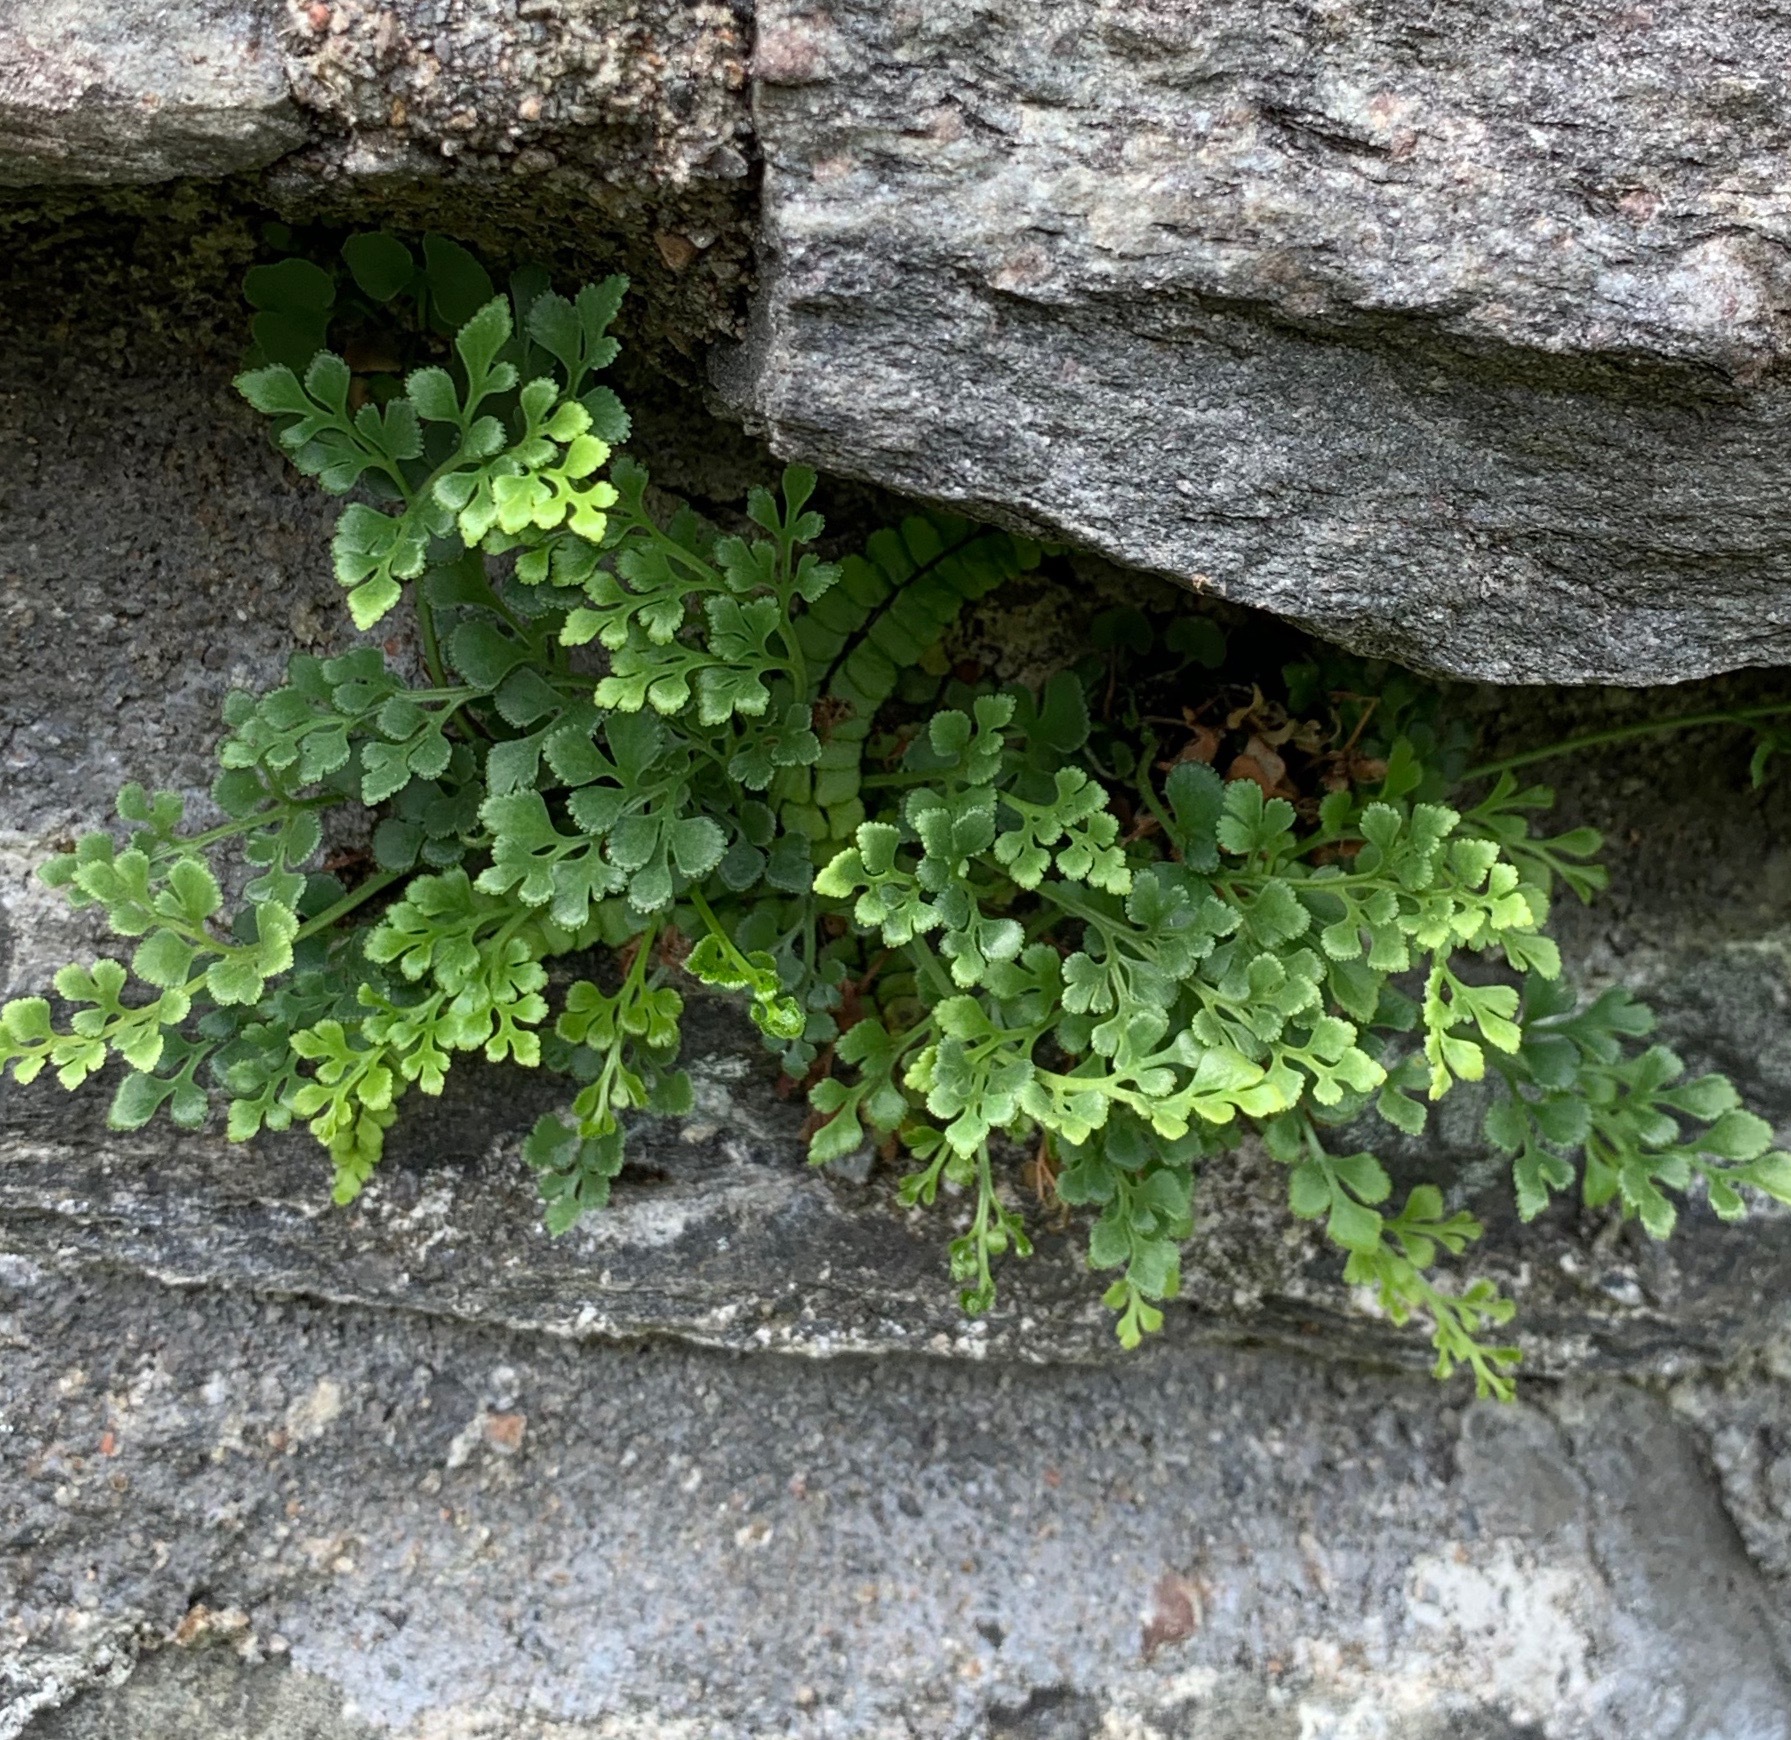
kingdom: Plantae
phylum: Tracheophyta
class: Polypodiopsida
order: Polypodiales
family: Aspleniaceae
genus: Asplenium
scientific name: Asplenium ruta-muraria
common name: Wall-rue
